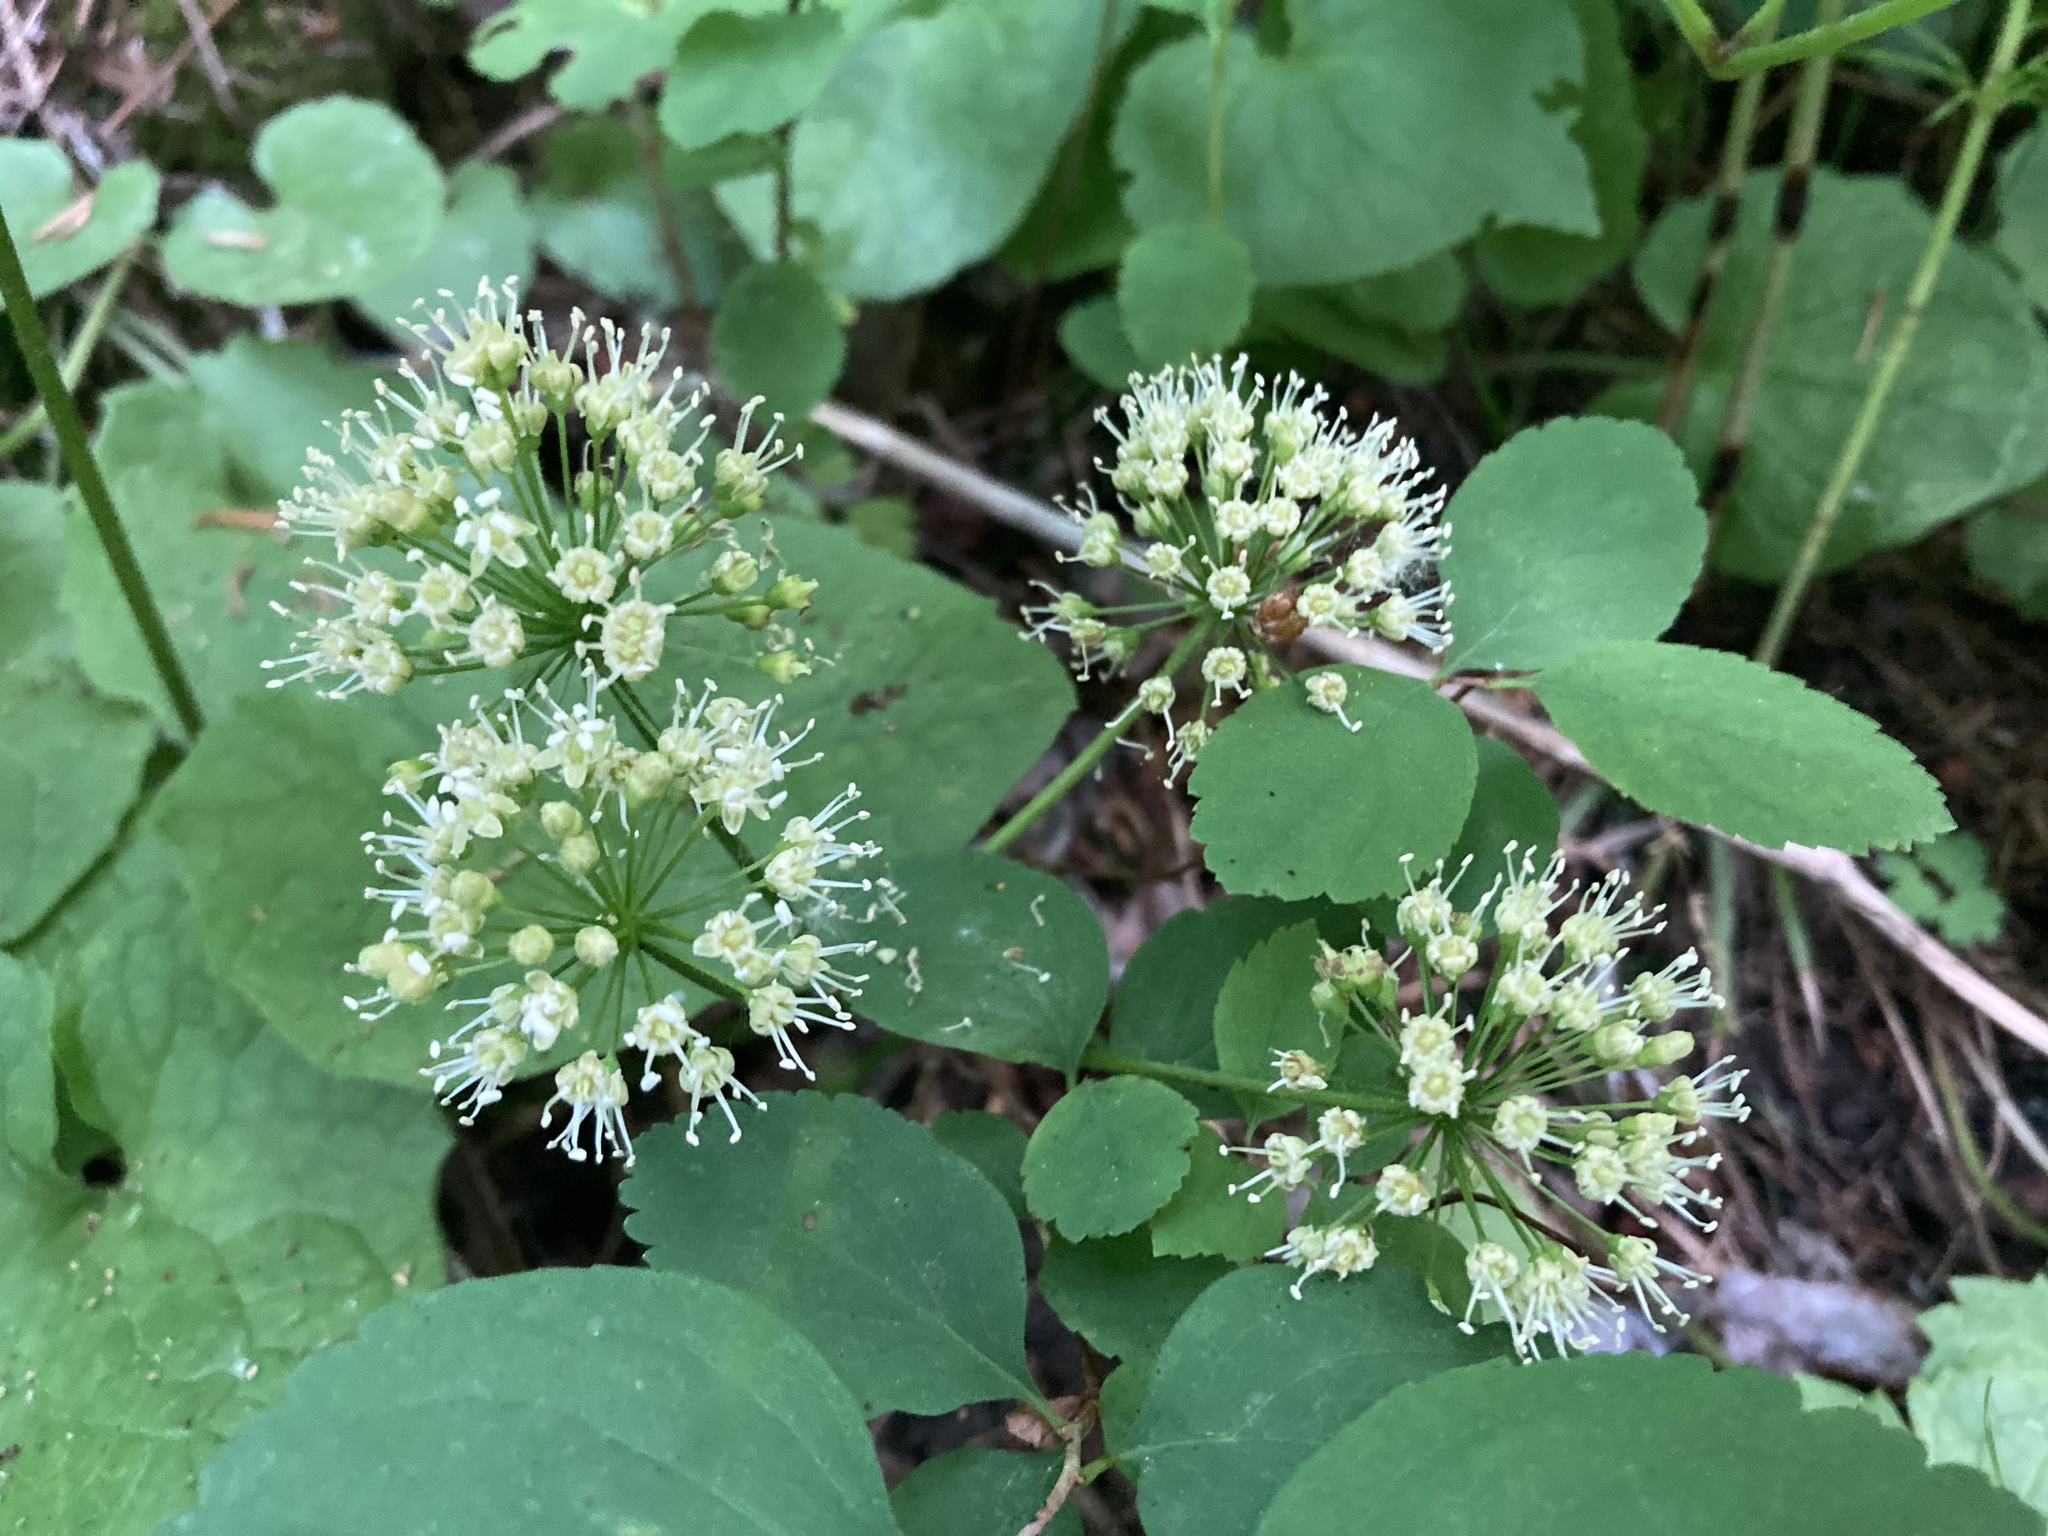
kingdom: Plantae
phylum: Tracheophyta
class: Magnoliopsida
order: Apiales
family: Araliaceae
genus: Aralia
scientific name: Aralia nudicaulis
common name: Wild sarsaparilla
